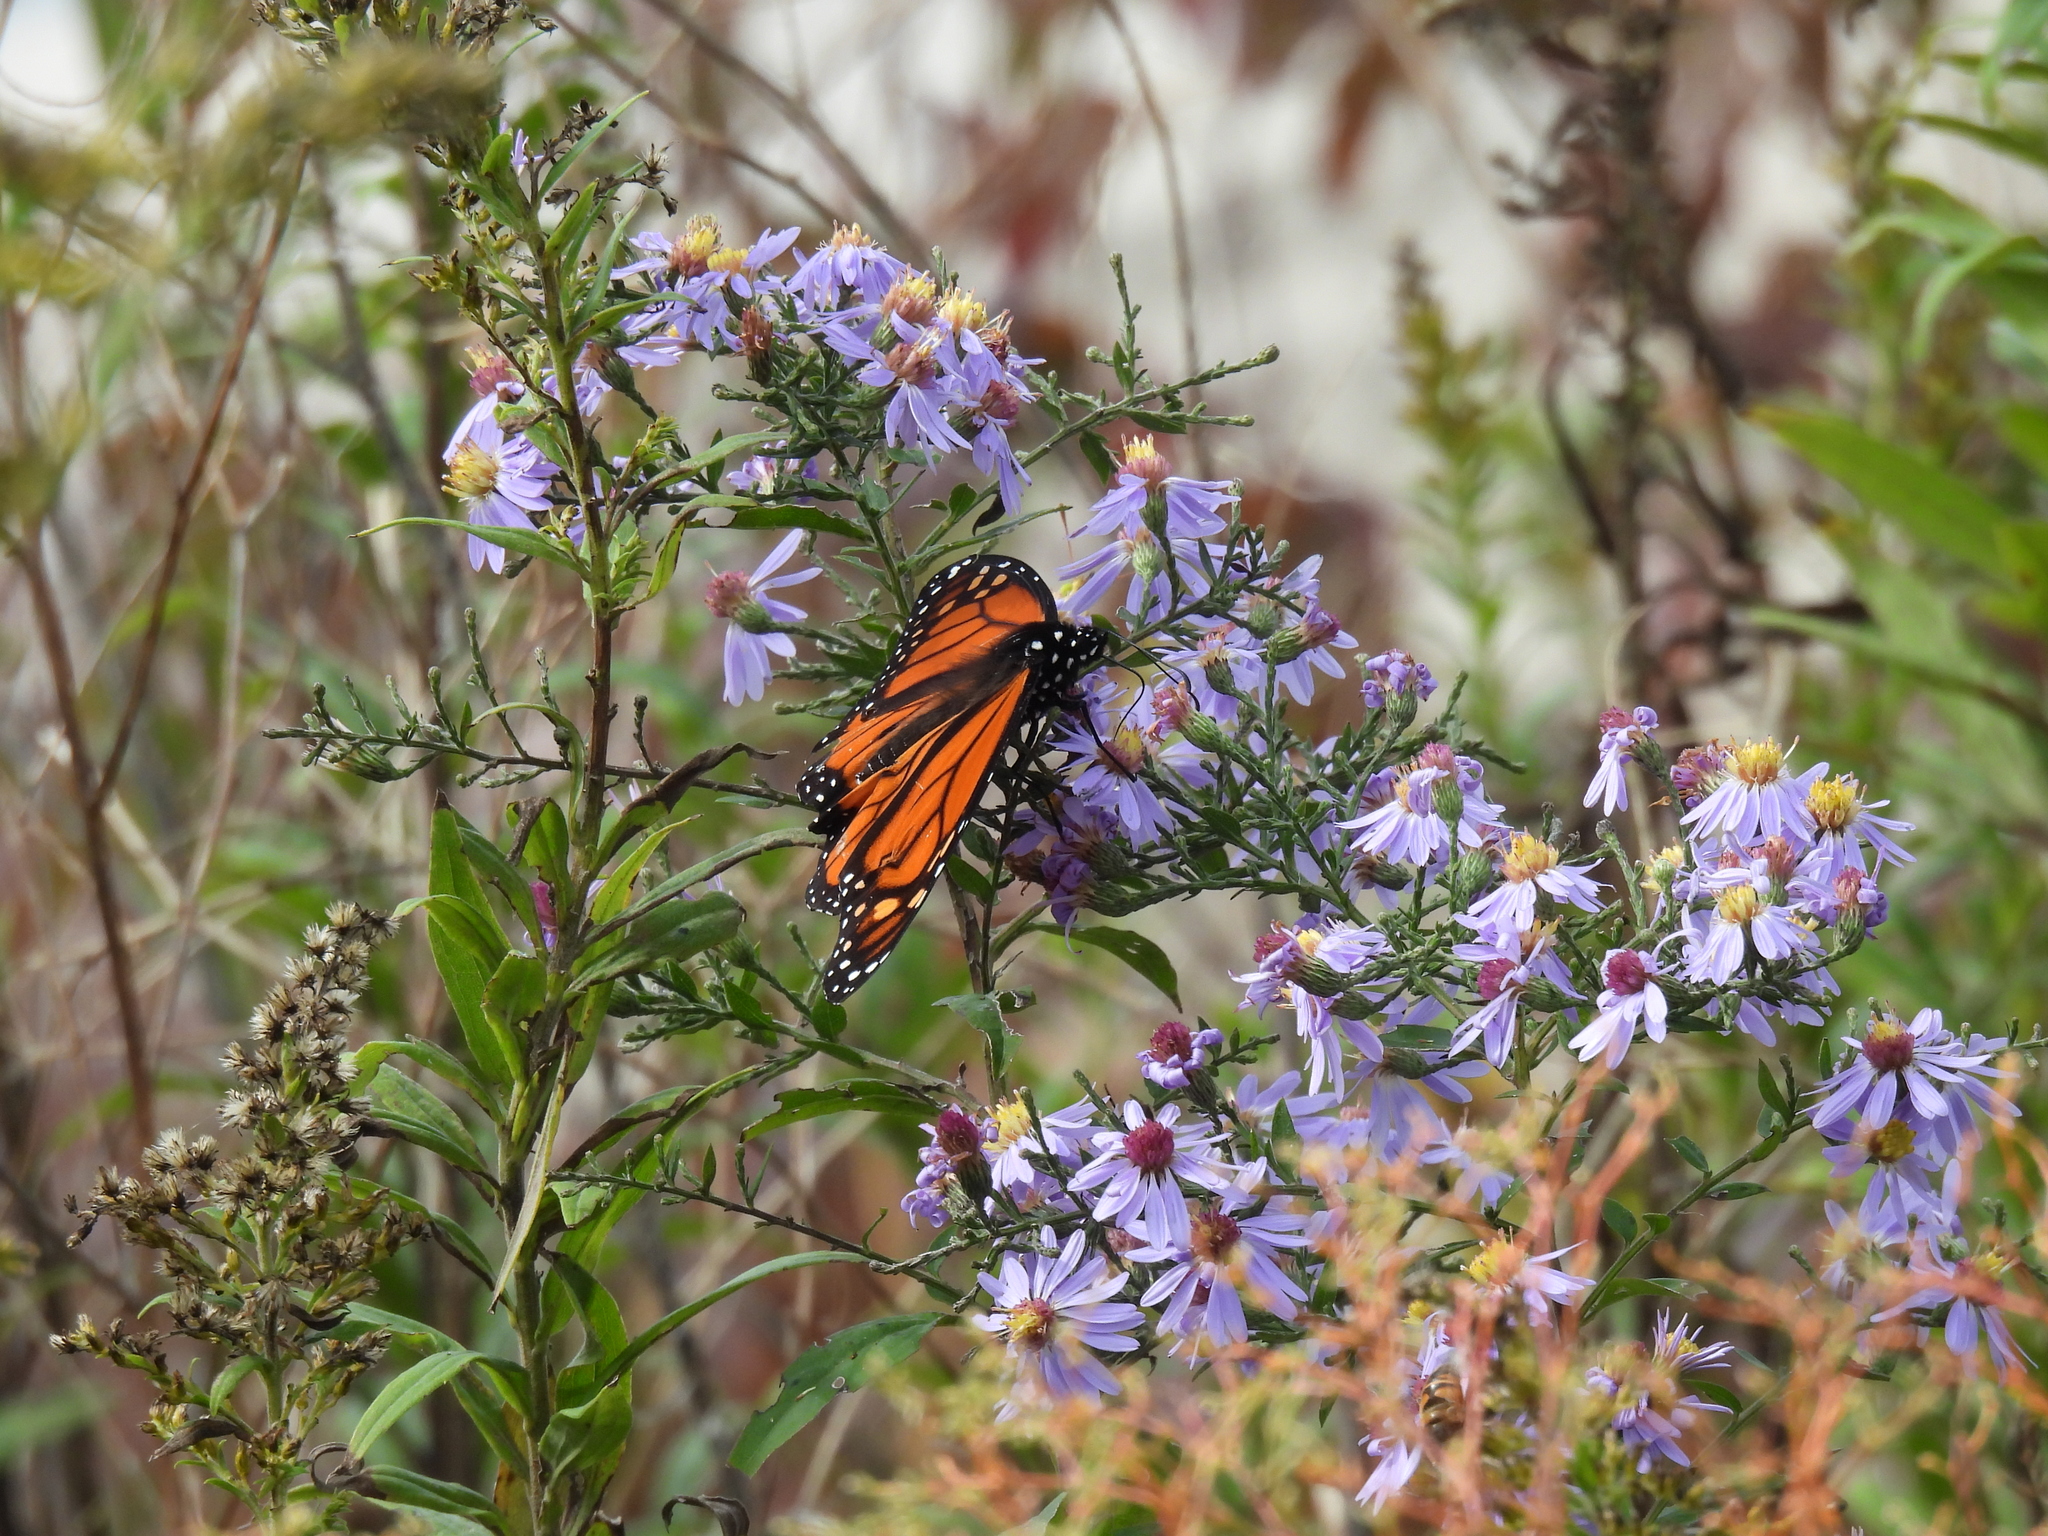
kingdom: Animalia
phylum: Arthropoda
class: Insecta
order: Lepidoptera
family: Nymphalidae
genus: Danaus
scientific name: Danaus plexippus
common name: Monarch
